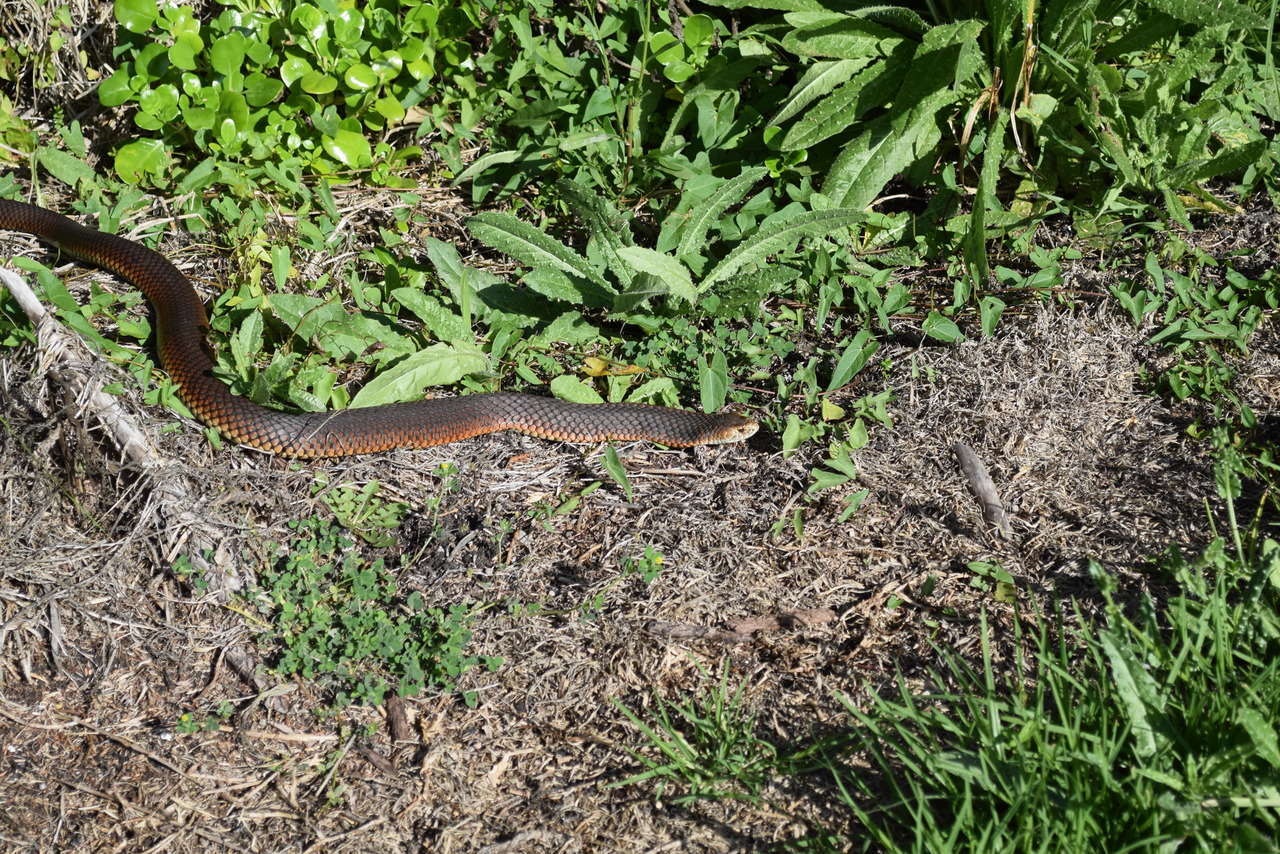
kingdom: Animalia
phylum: Chordata
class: Squamata
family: Elapidae
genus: Austrelaps
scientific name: Austrelaps superbus
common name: Copperhead snake
